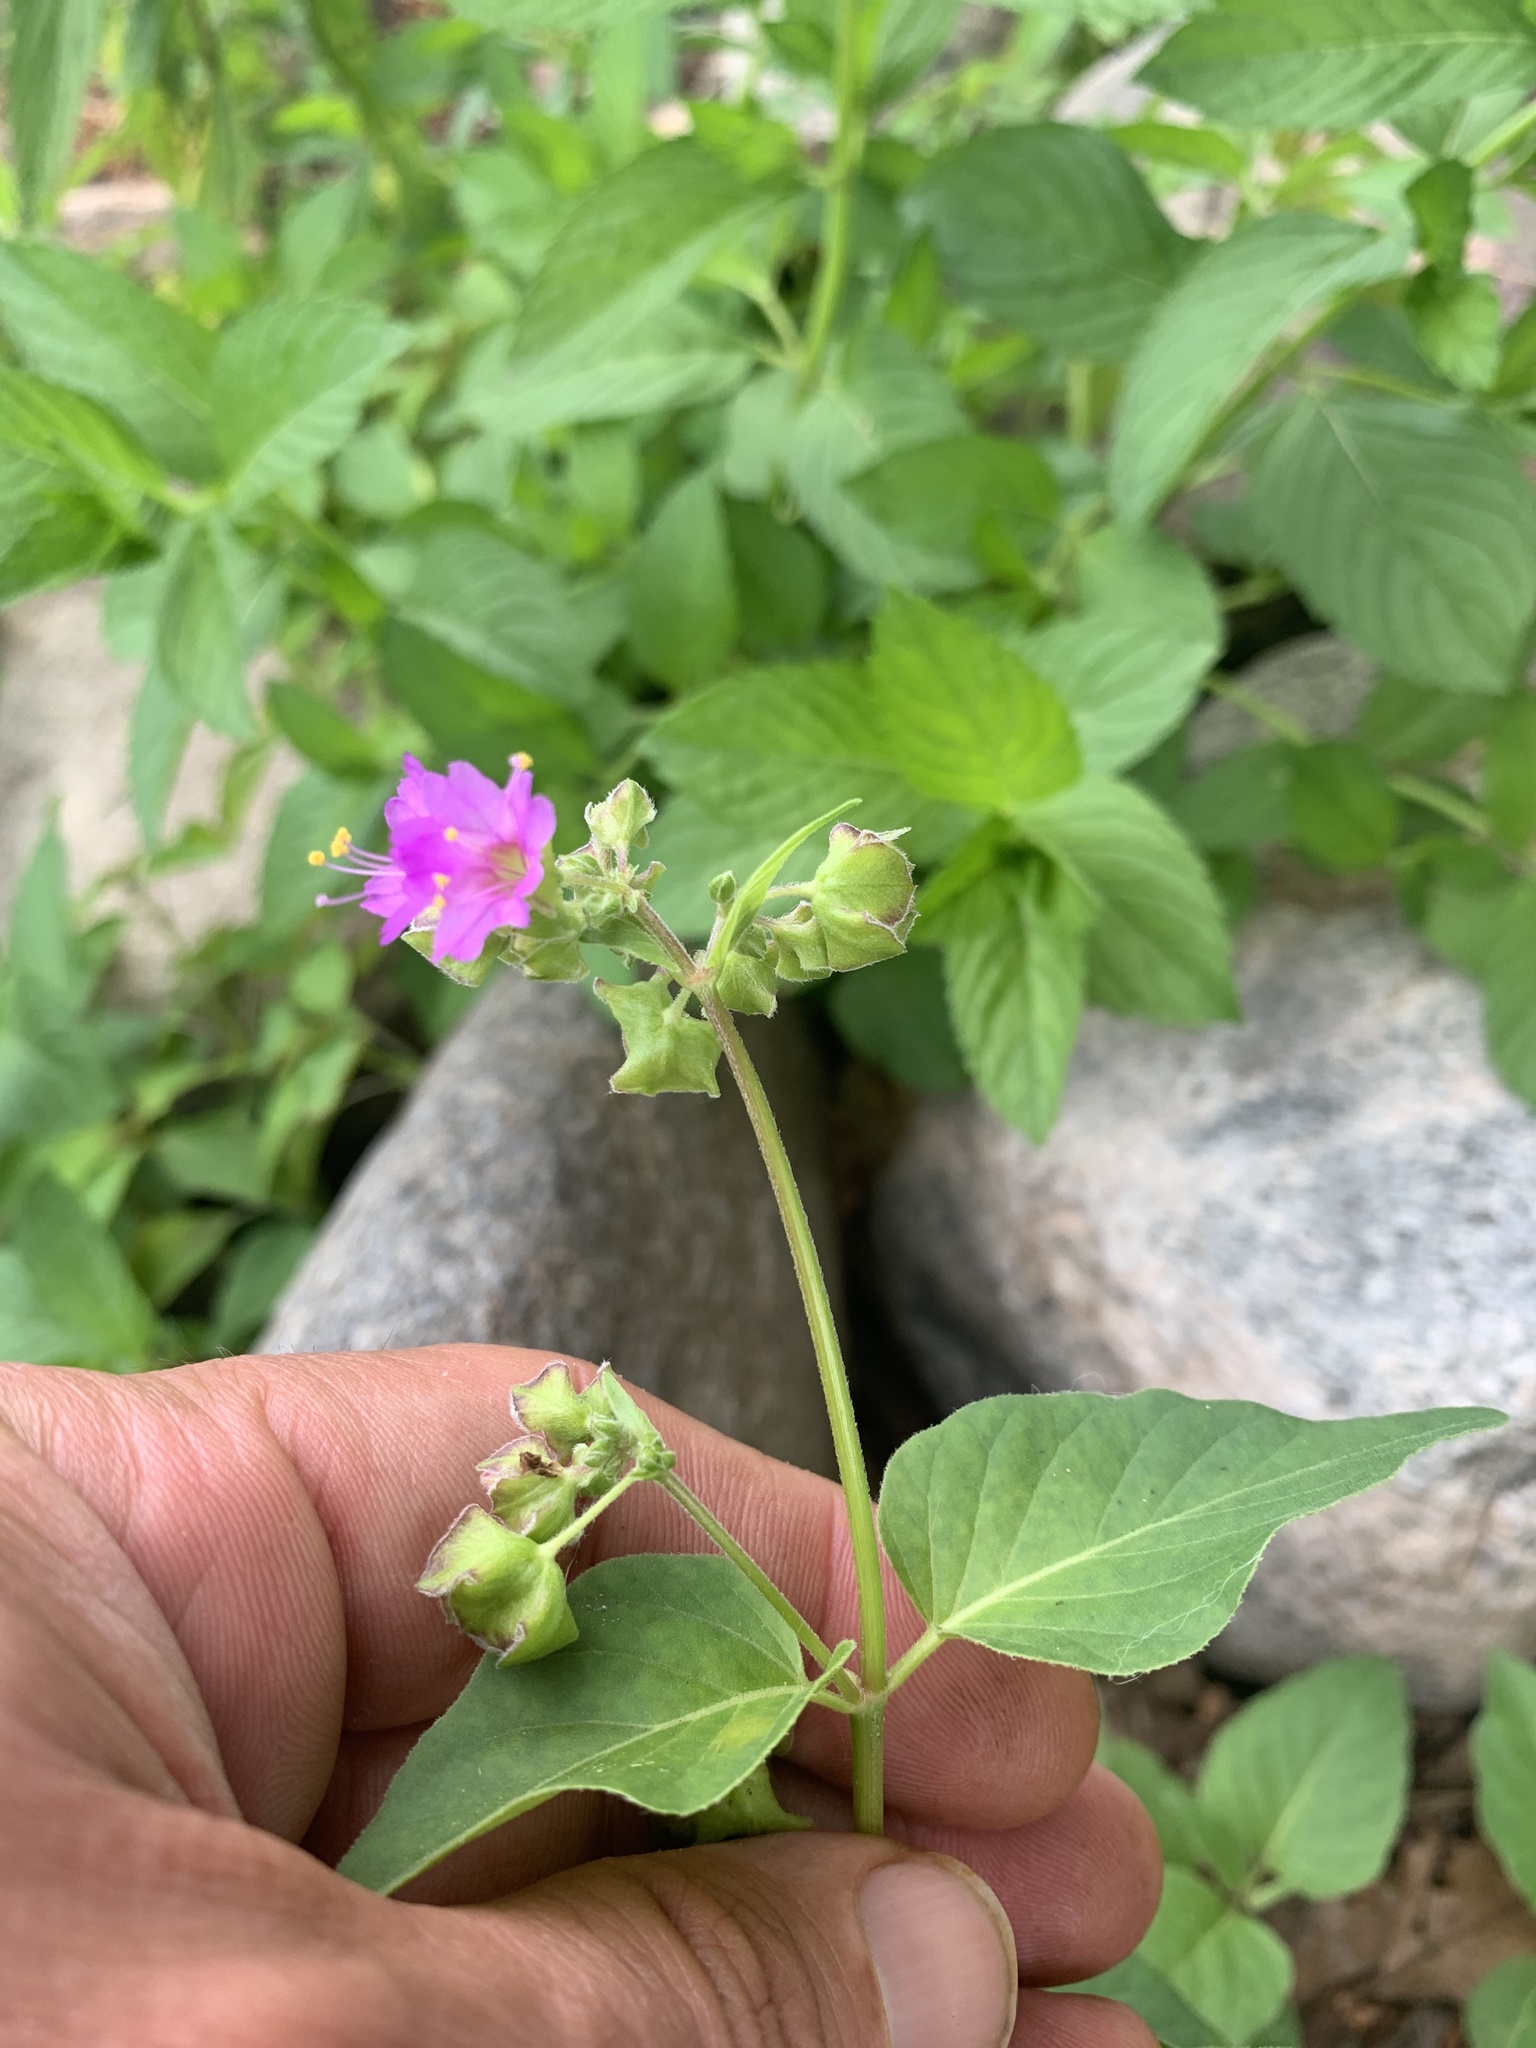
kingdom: Plantae
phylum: Tracheophyta
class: Magnoliopsida
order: Caryophyllales
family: Nyctaginaceae
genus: Mirabilis
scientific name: Mirabilis nyctaginea
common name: Umbrella wort
